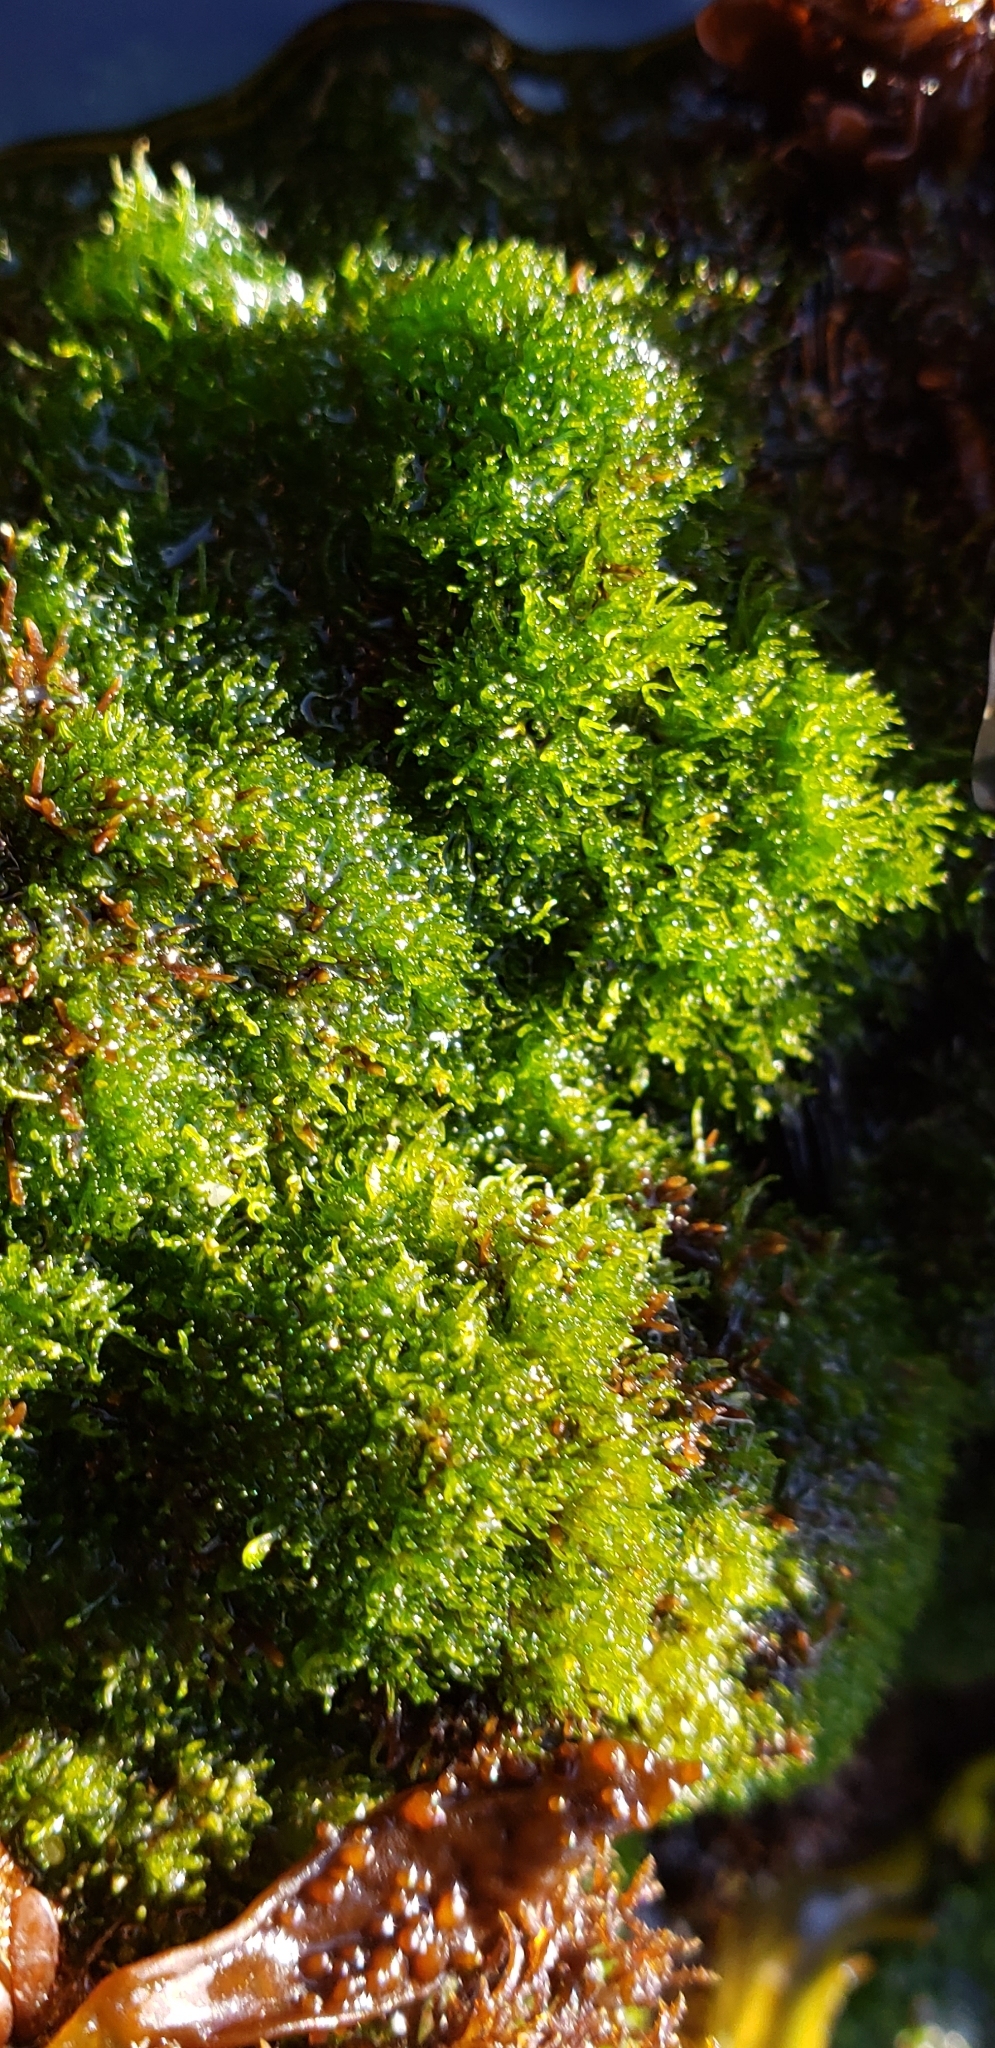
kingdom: Plantae
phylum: Chlorophyta
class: Ulvophyceae
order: Cladophorales
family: Cladophoraceae
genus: Cladophora
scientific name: Cladophora columbiana
